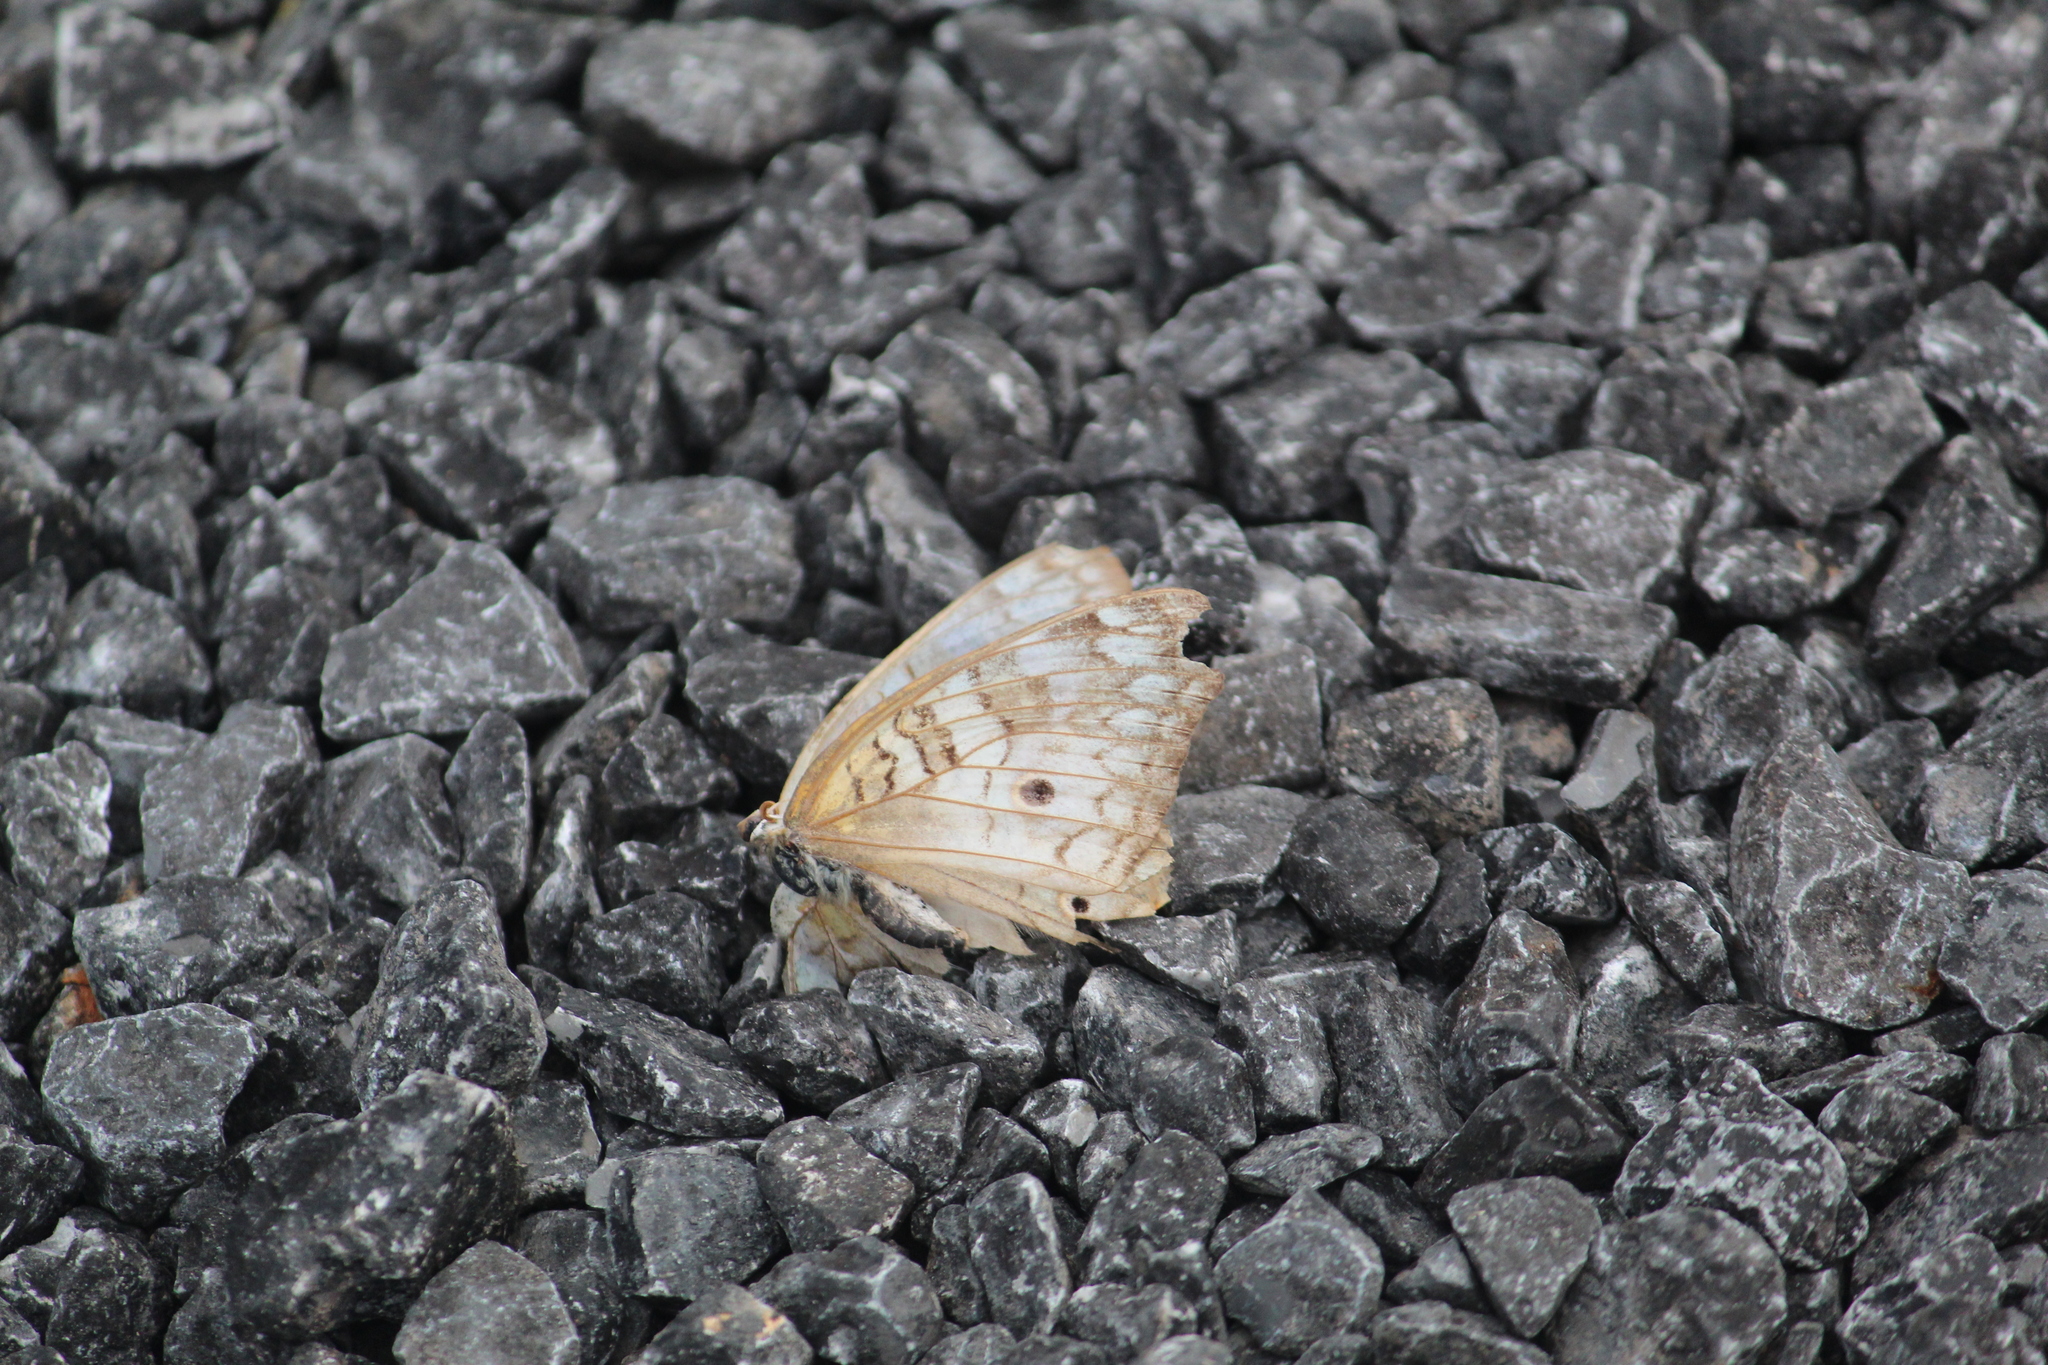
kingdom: Animalia
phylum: Arthropoda
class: Insecta
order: Lepidoptera
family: Nymphalidae
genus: Anartia
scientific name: Anartia jatrophae
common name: White peacock
